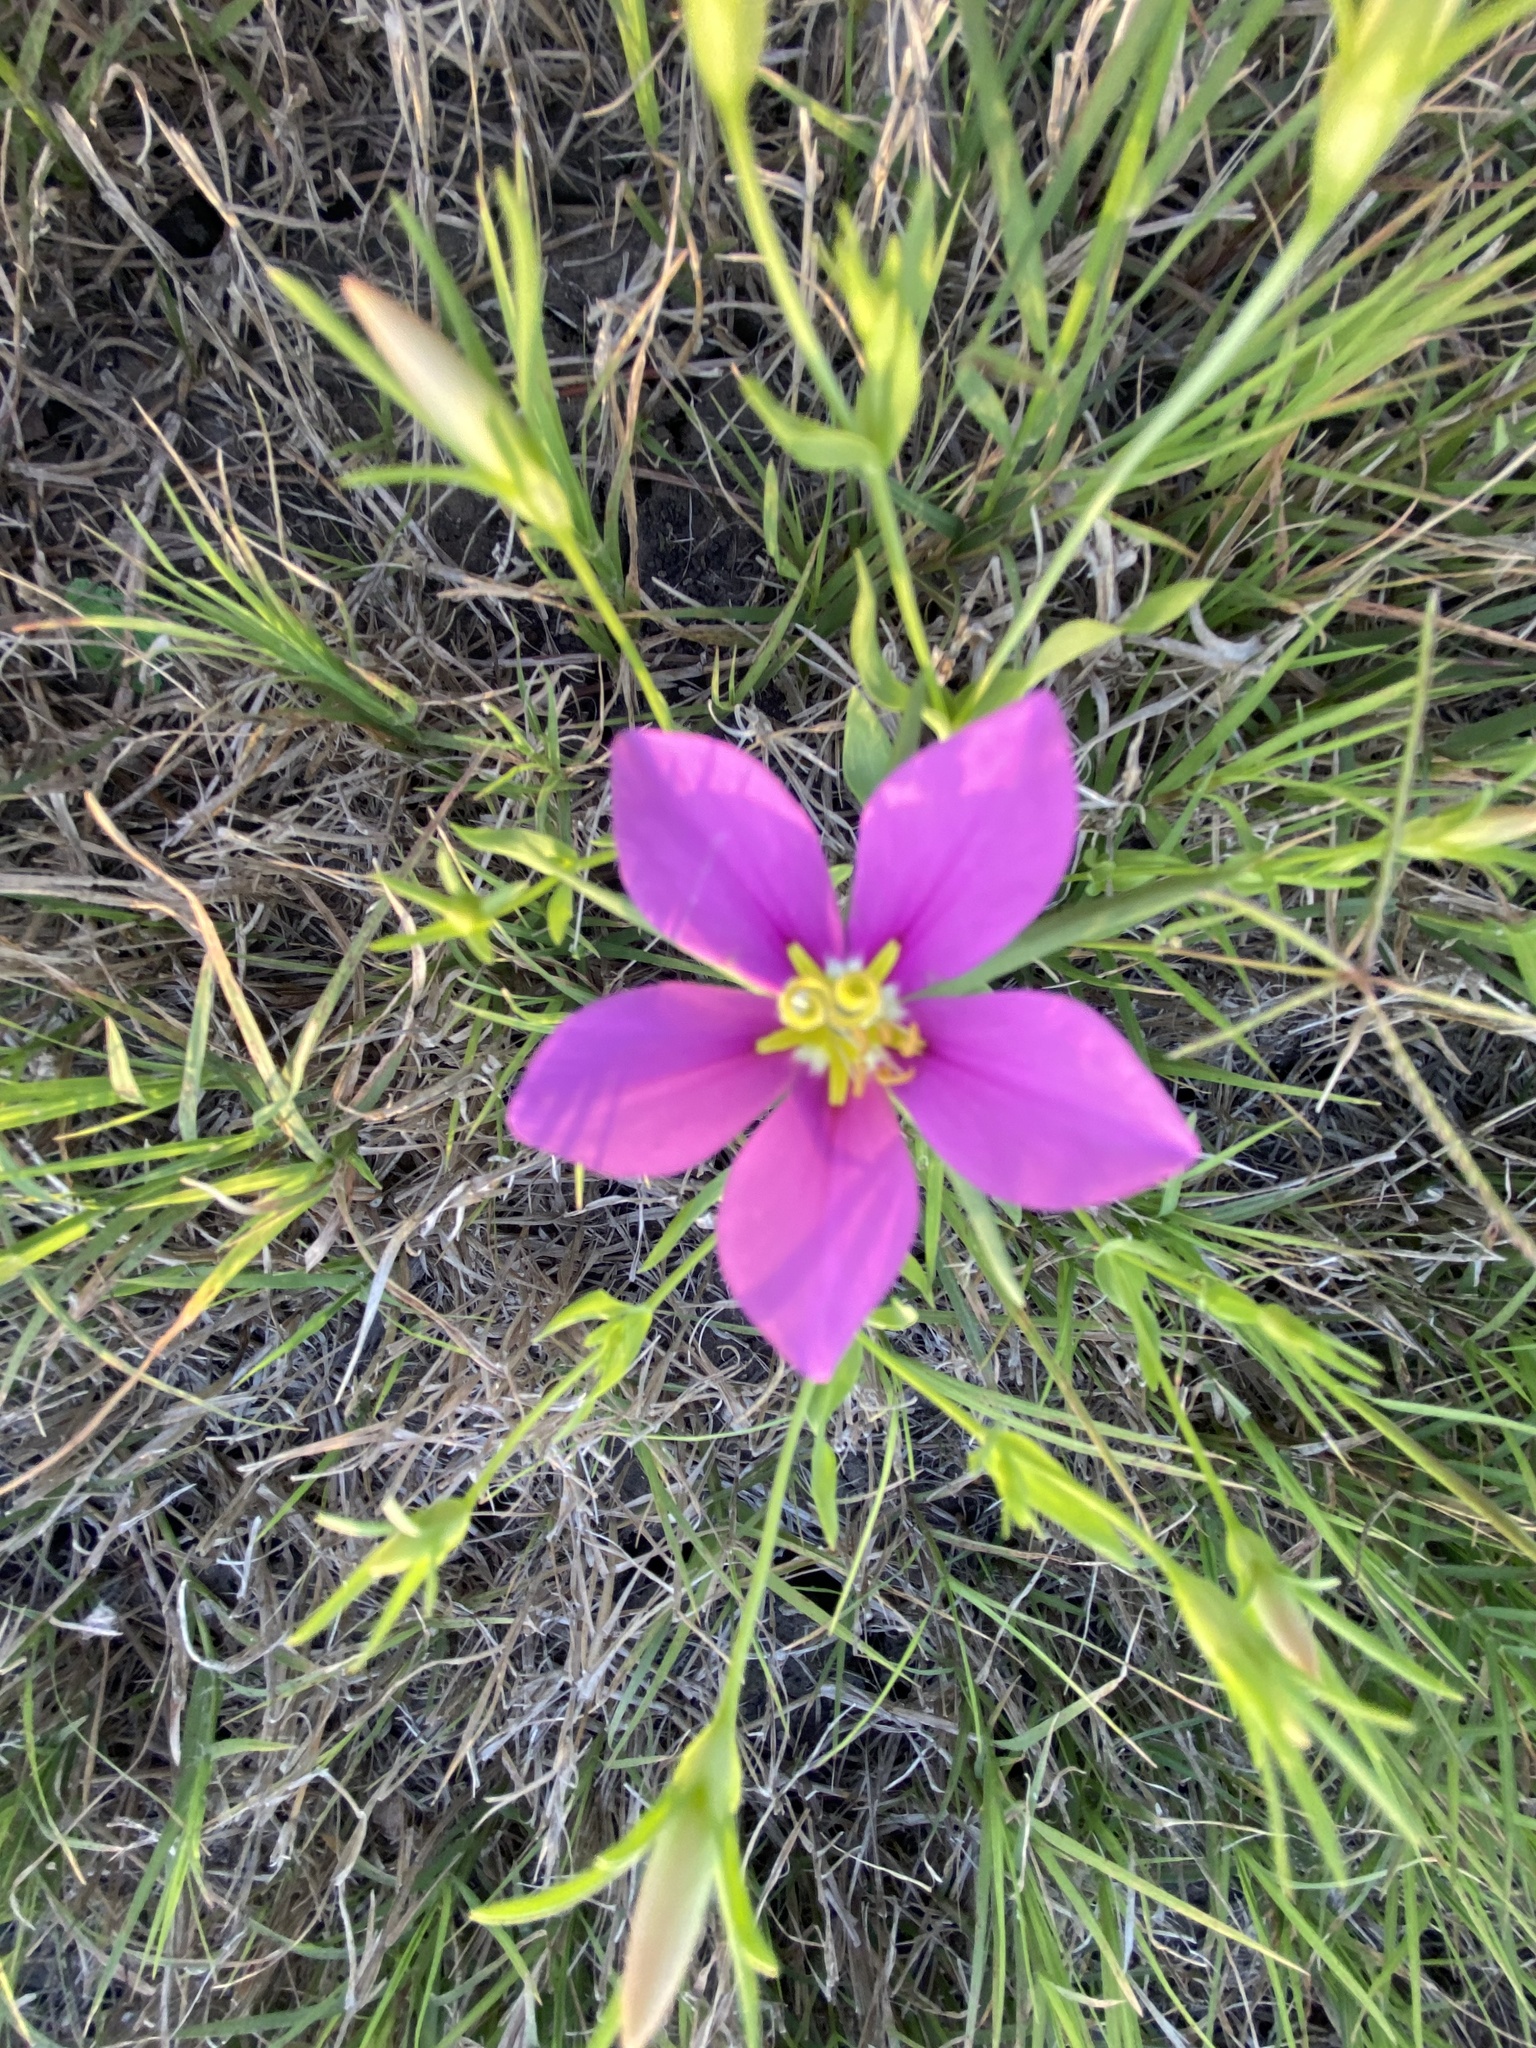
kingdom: Plantae
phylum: Tracheophyta
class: Magnoliopsida
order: Gentianales
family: Gentianaceae
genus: Sabatia
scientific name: Sabatia campestris
